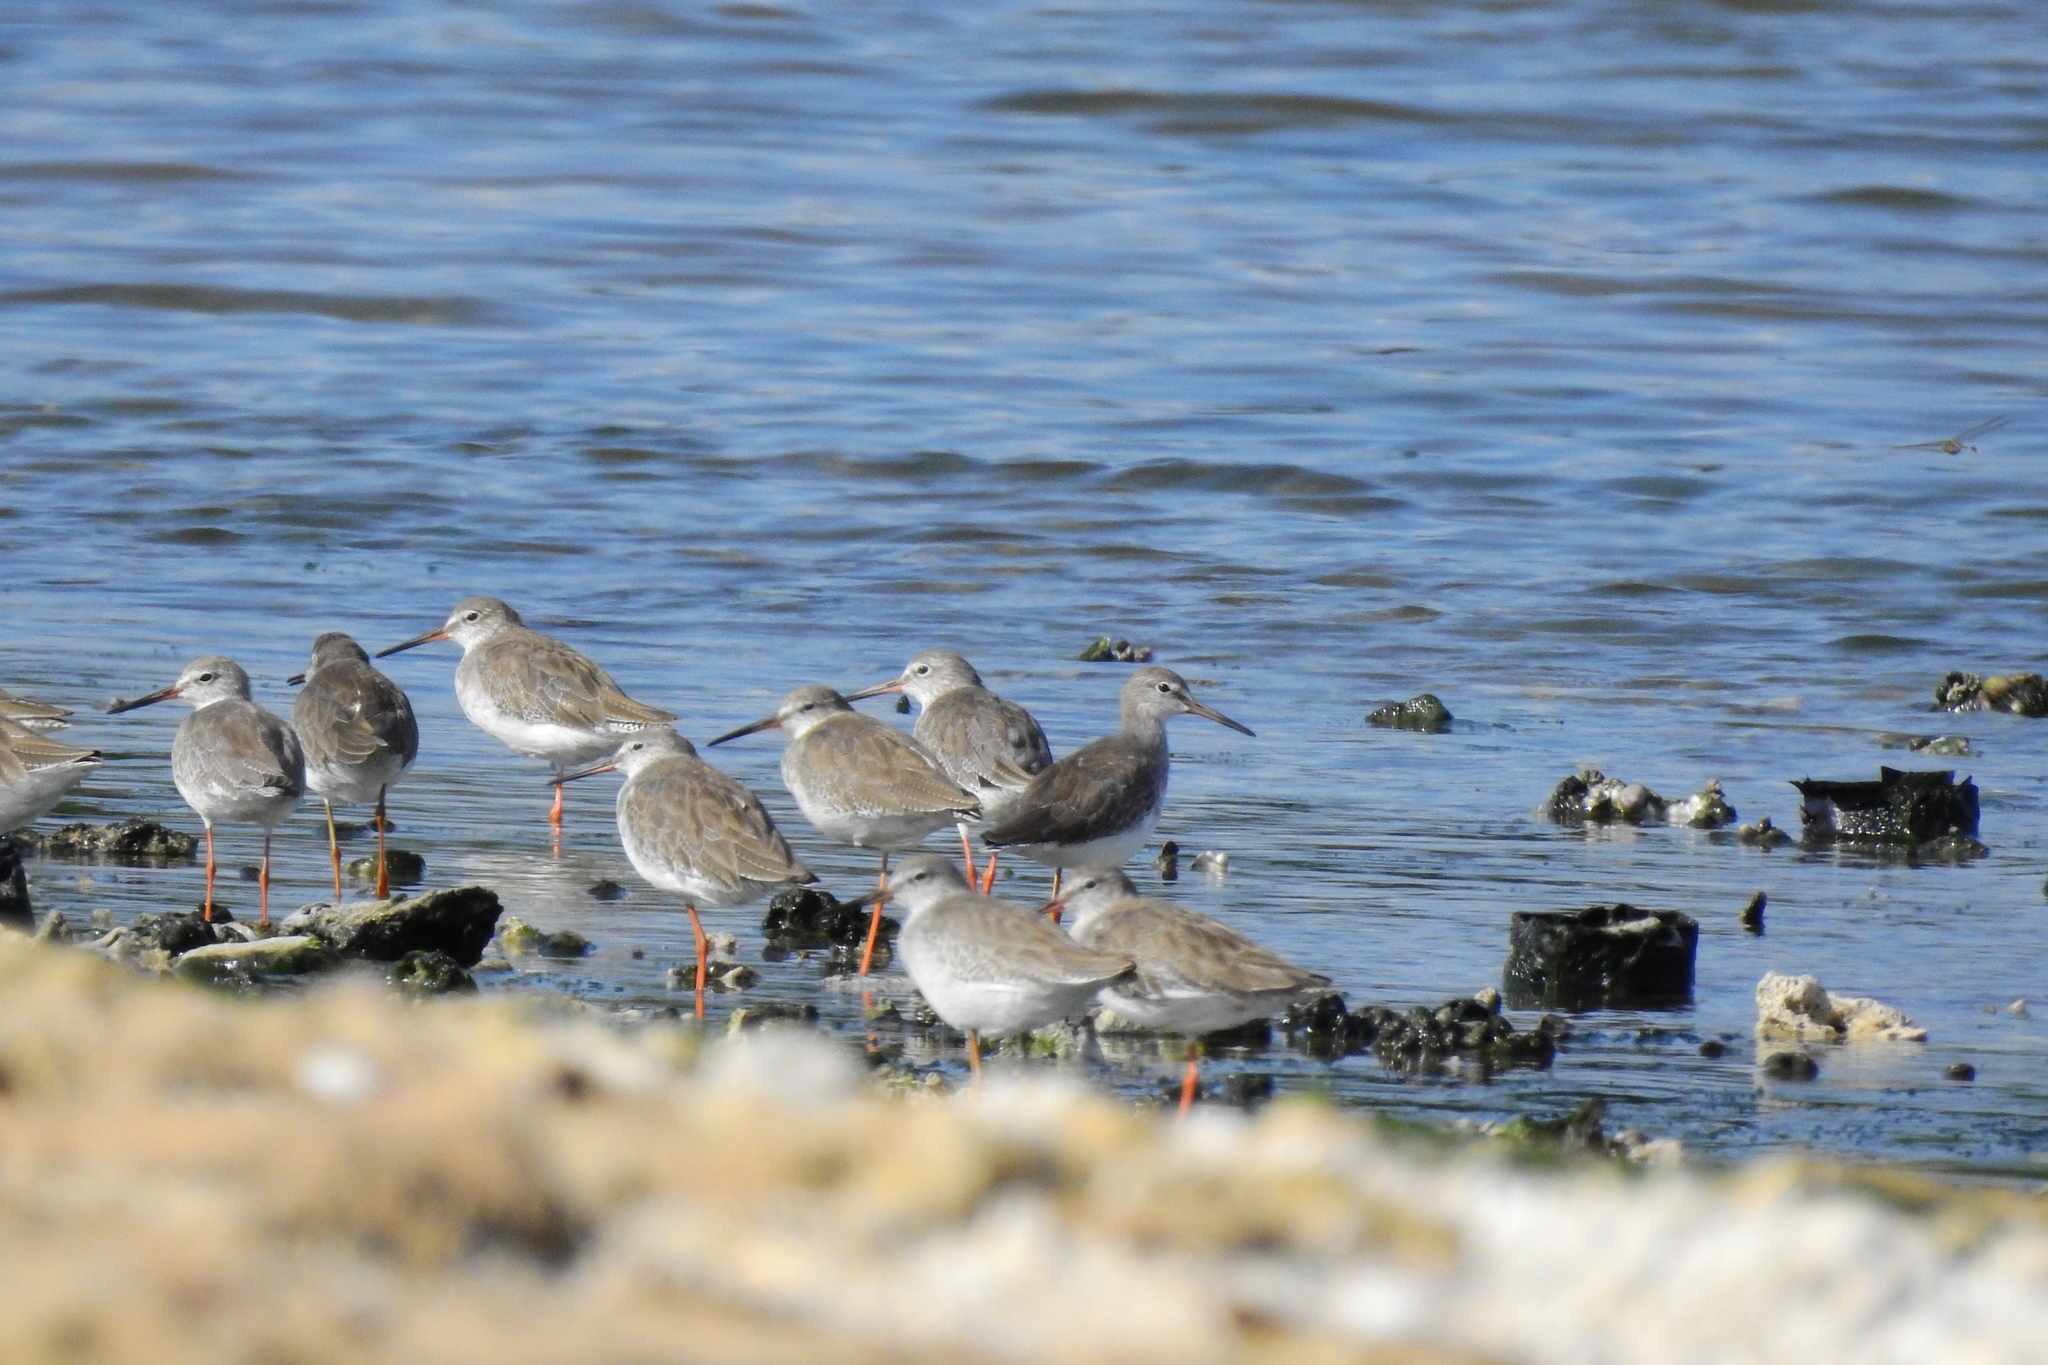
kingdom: Animalia
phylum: Chordata
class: Aves
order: Charadriiformes
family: Scolopacidae
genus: Tringa
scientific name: Tringa totanus
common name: Common redshank
